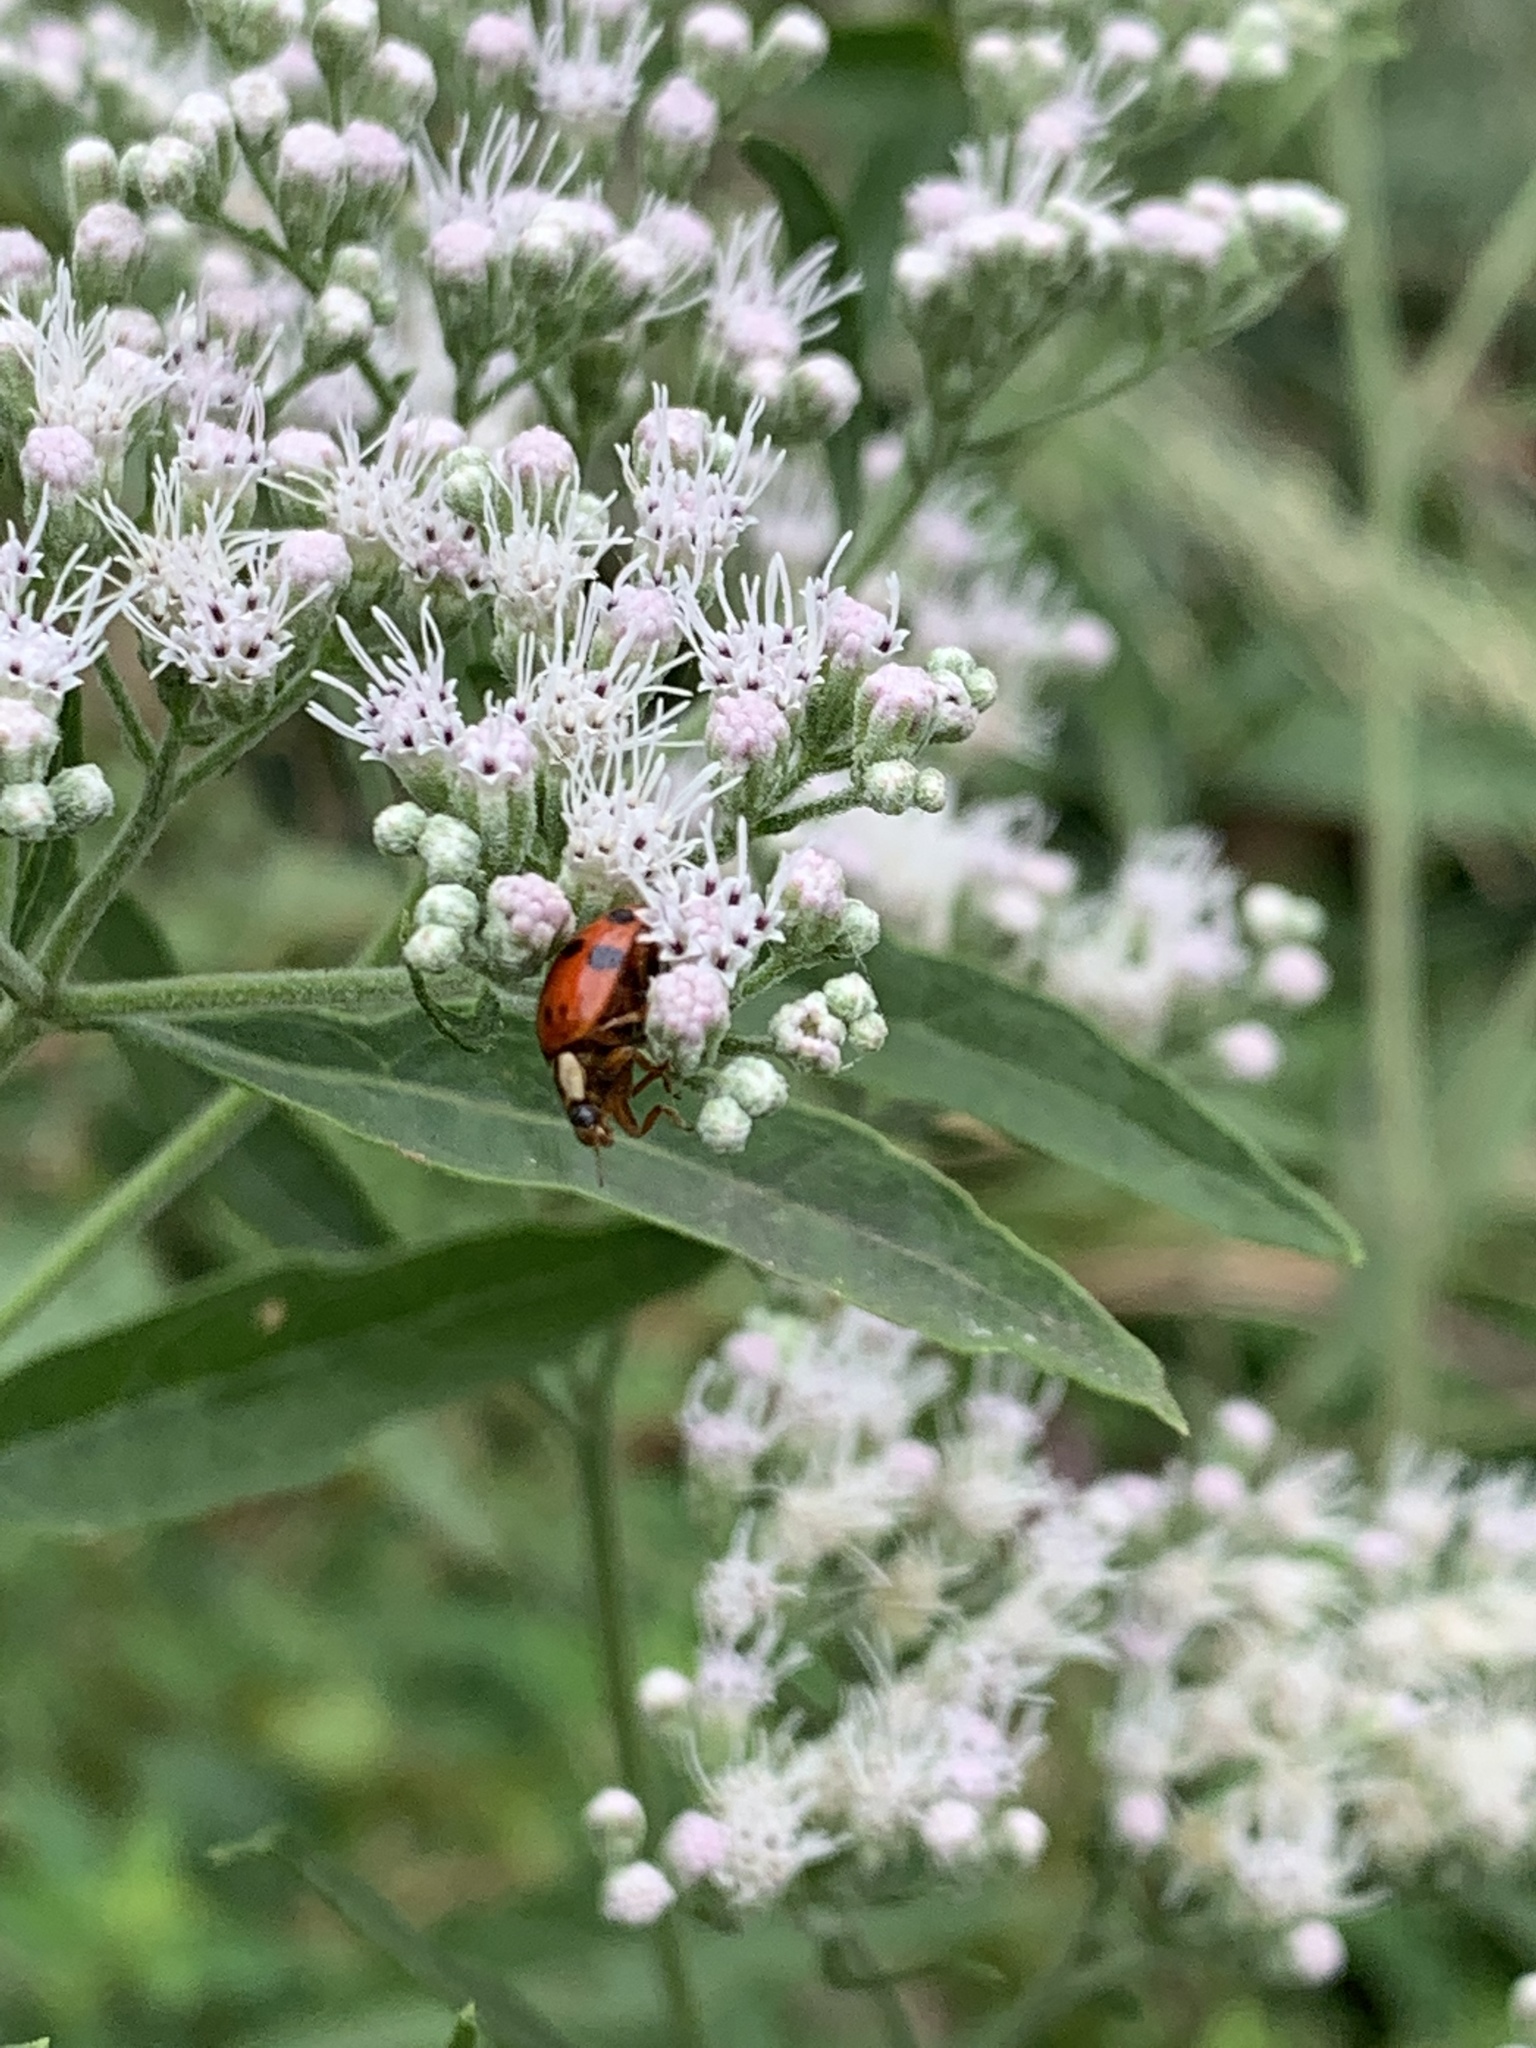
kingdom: Animalia
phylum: Arthropoda
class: Insecta
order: Coleoptera
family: Coccinellidae
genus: Harmonia
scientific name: Harmonia axyridis
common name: Harlequin ladybird
